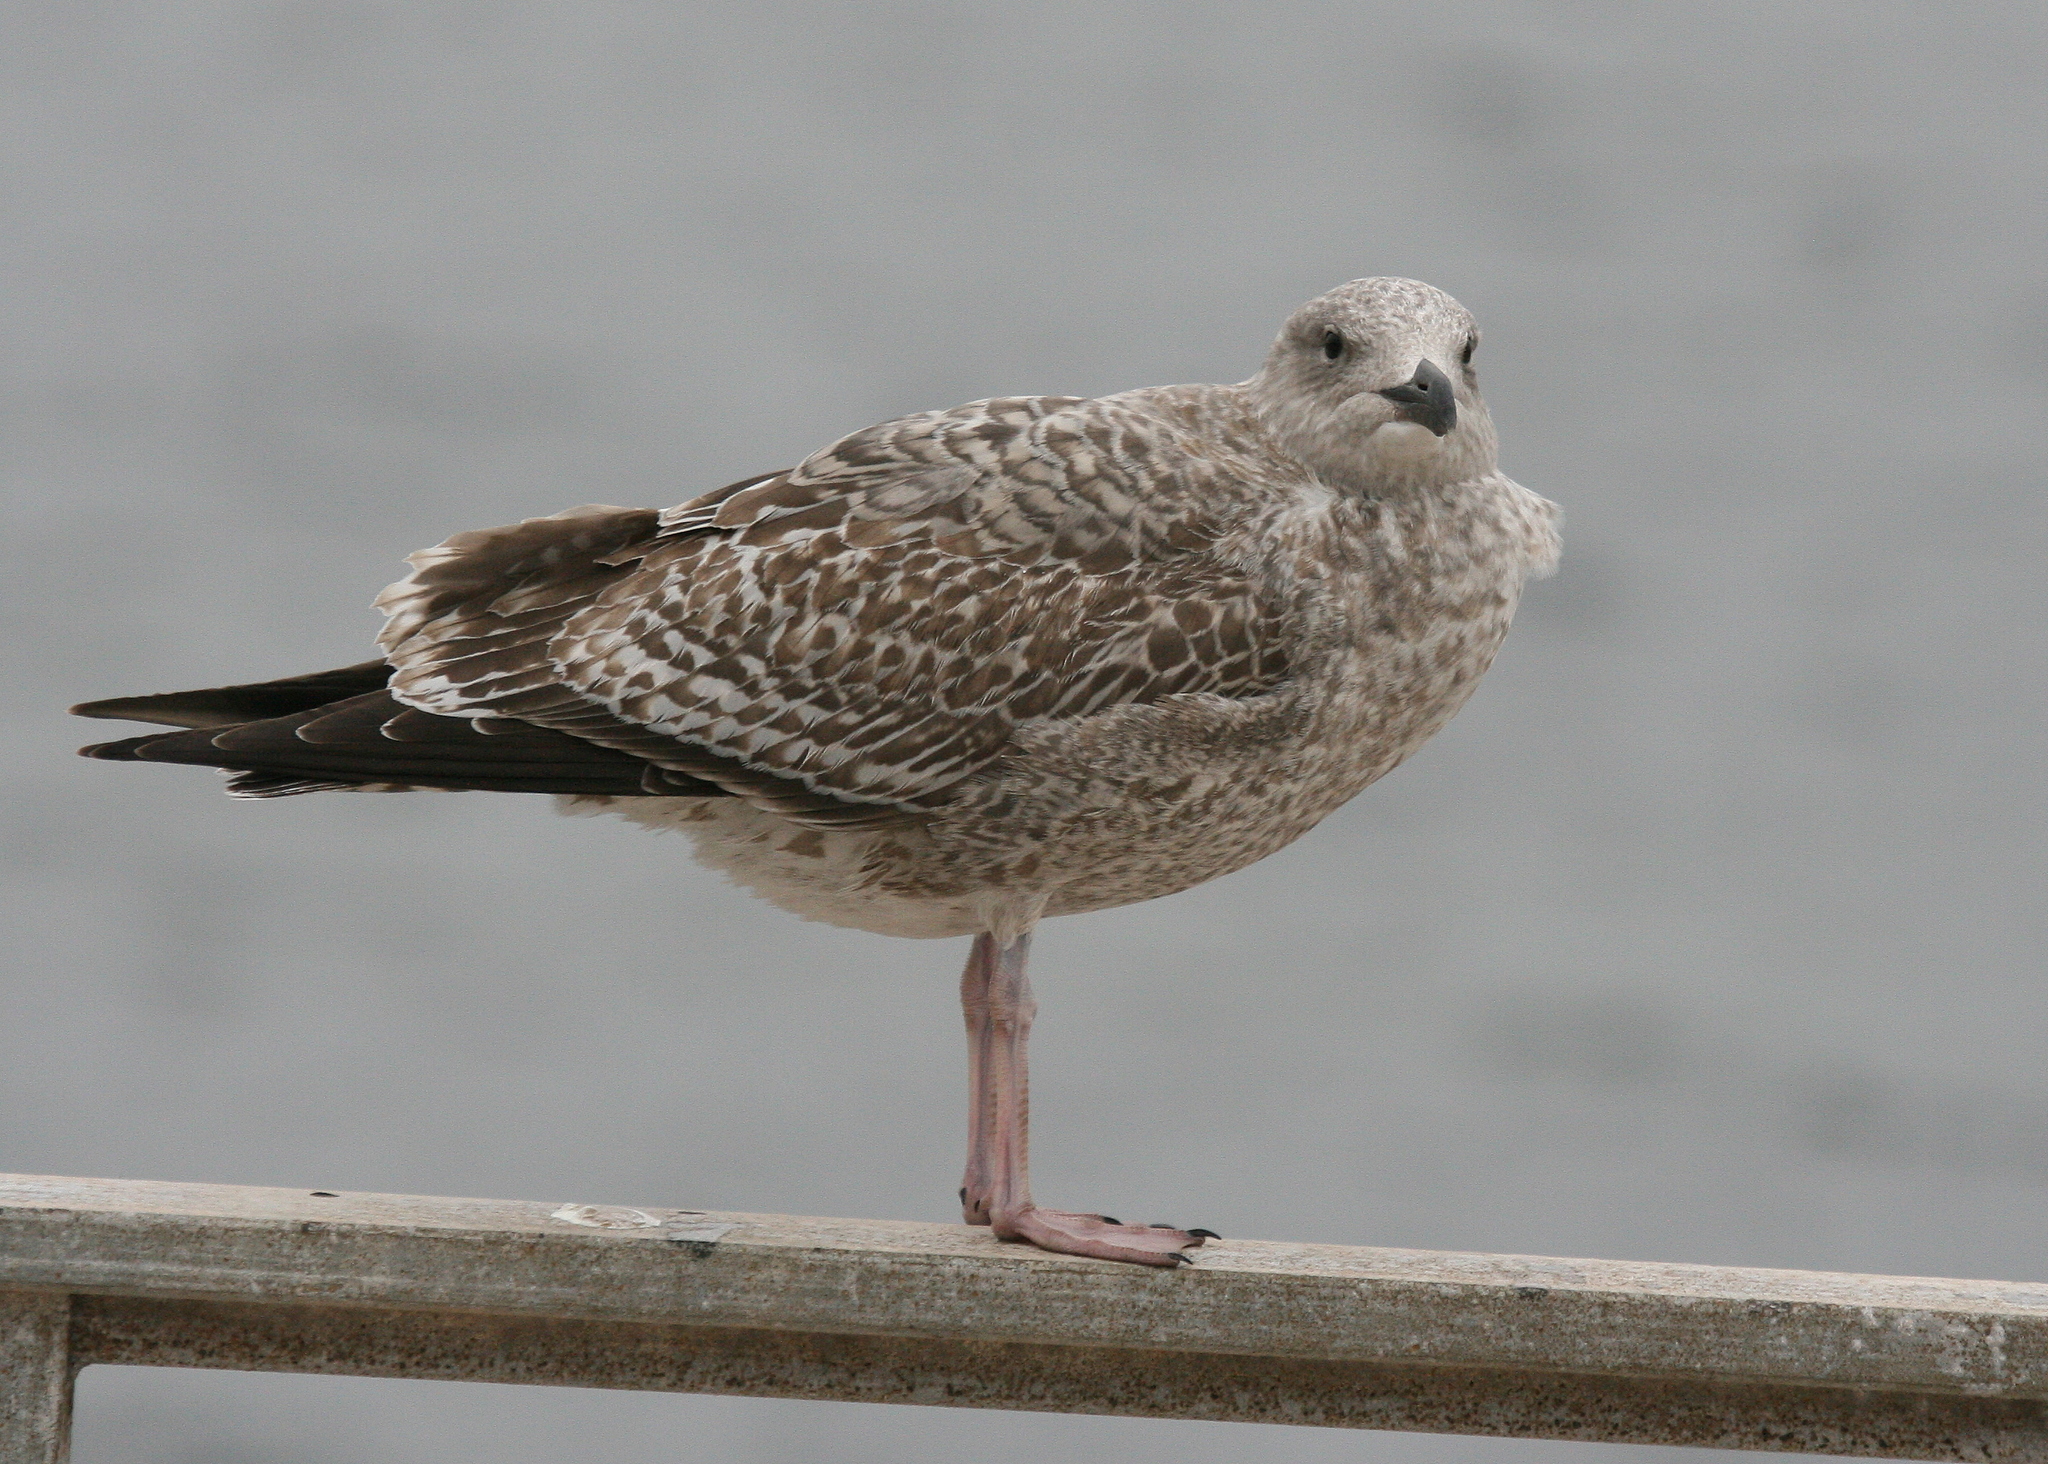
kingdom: Animalia
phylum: Chordata
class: Aves
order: Charadriiformes
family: Laridae
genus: Larus
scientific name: Larus argentatus
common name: Herring gull
